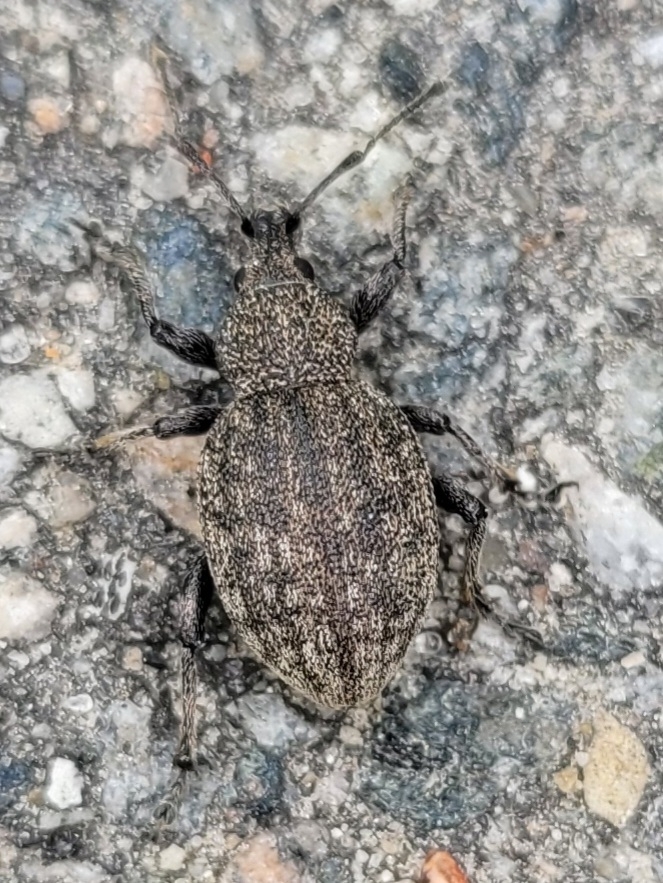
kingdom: Animalia
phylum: Arthropoda
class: Insecta
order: Coleoptera
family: Curculionidae
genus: Otiorhynchus
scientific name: Otiorhynchus ligustici
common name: Weevil
